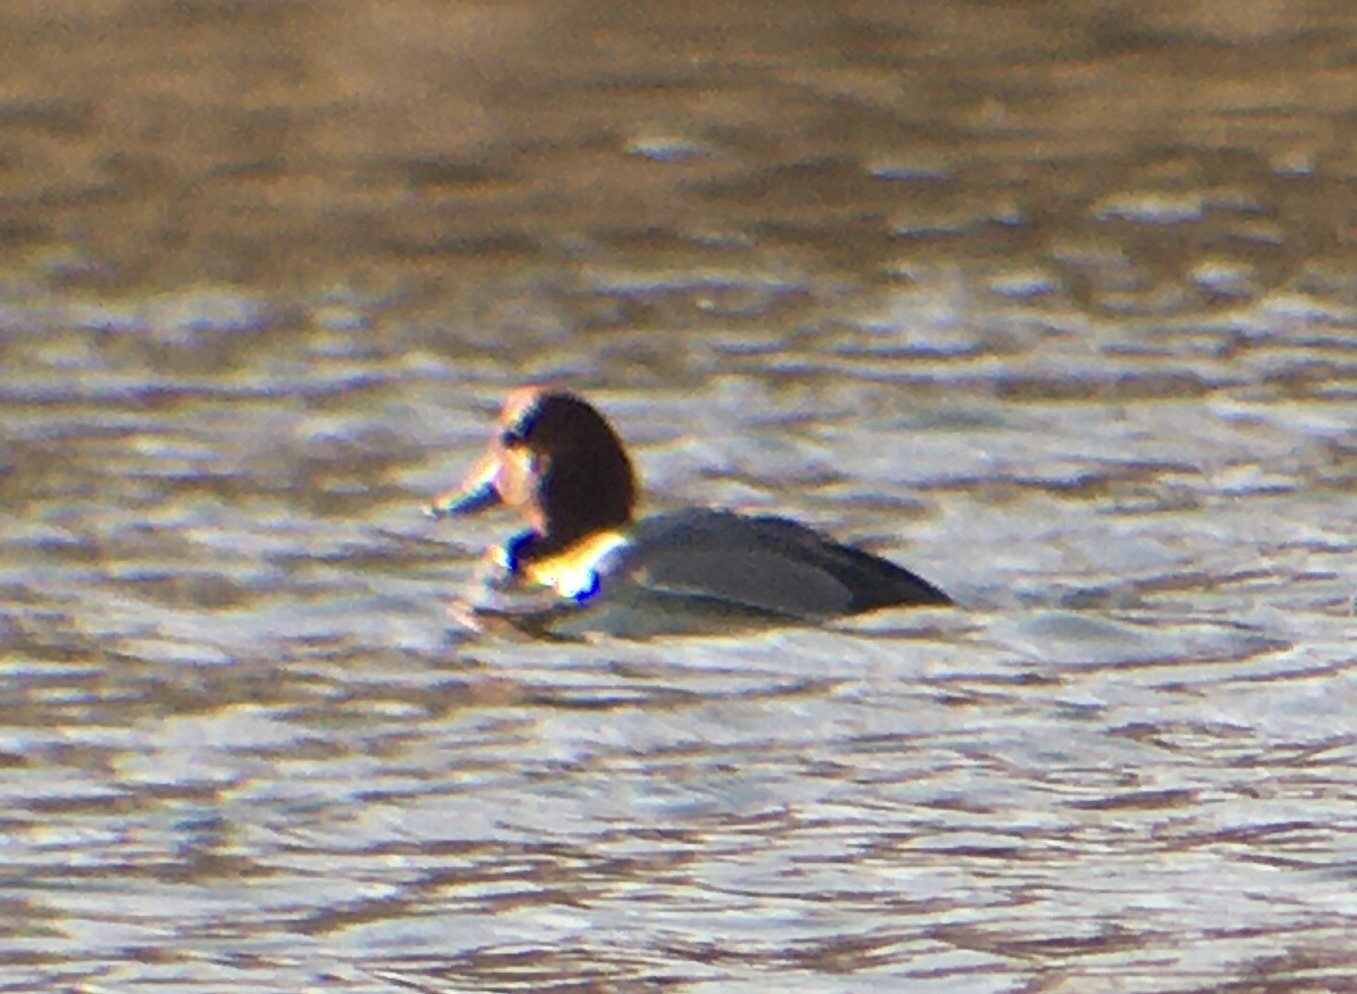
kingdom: Animalia
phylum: Chordata
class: Aves
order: Anseriformes
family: Anatidae
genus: Aythya
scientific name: Aythya americana
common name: Redhead
